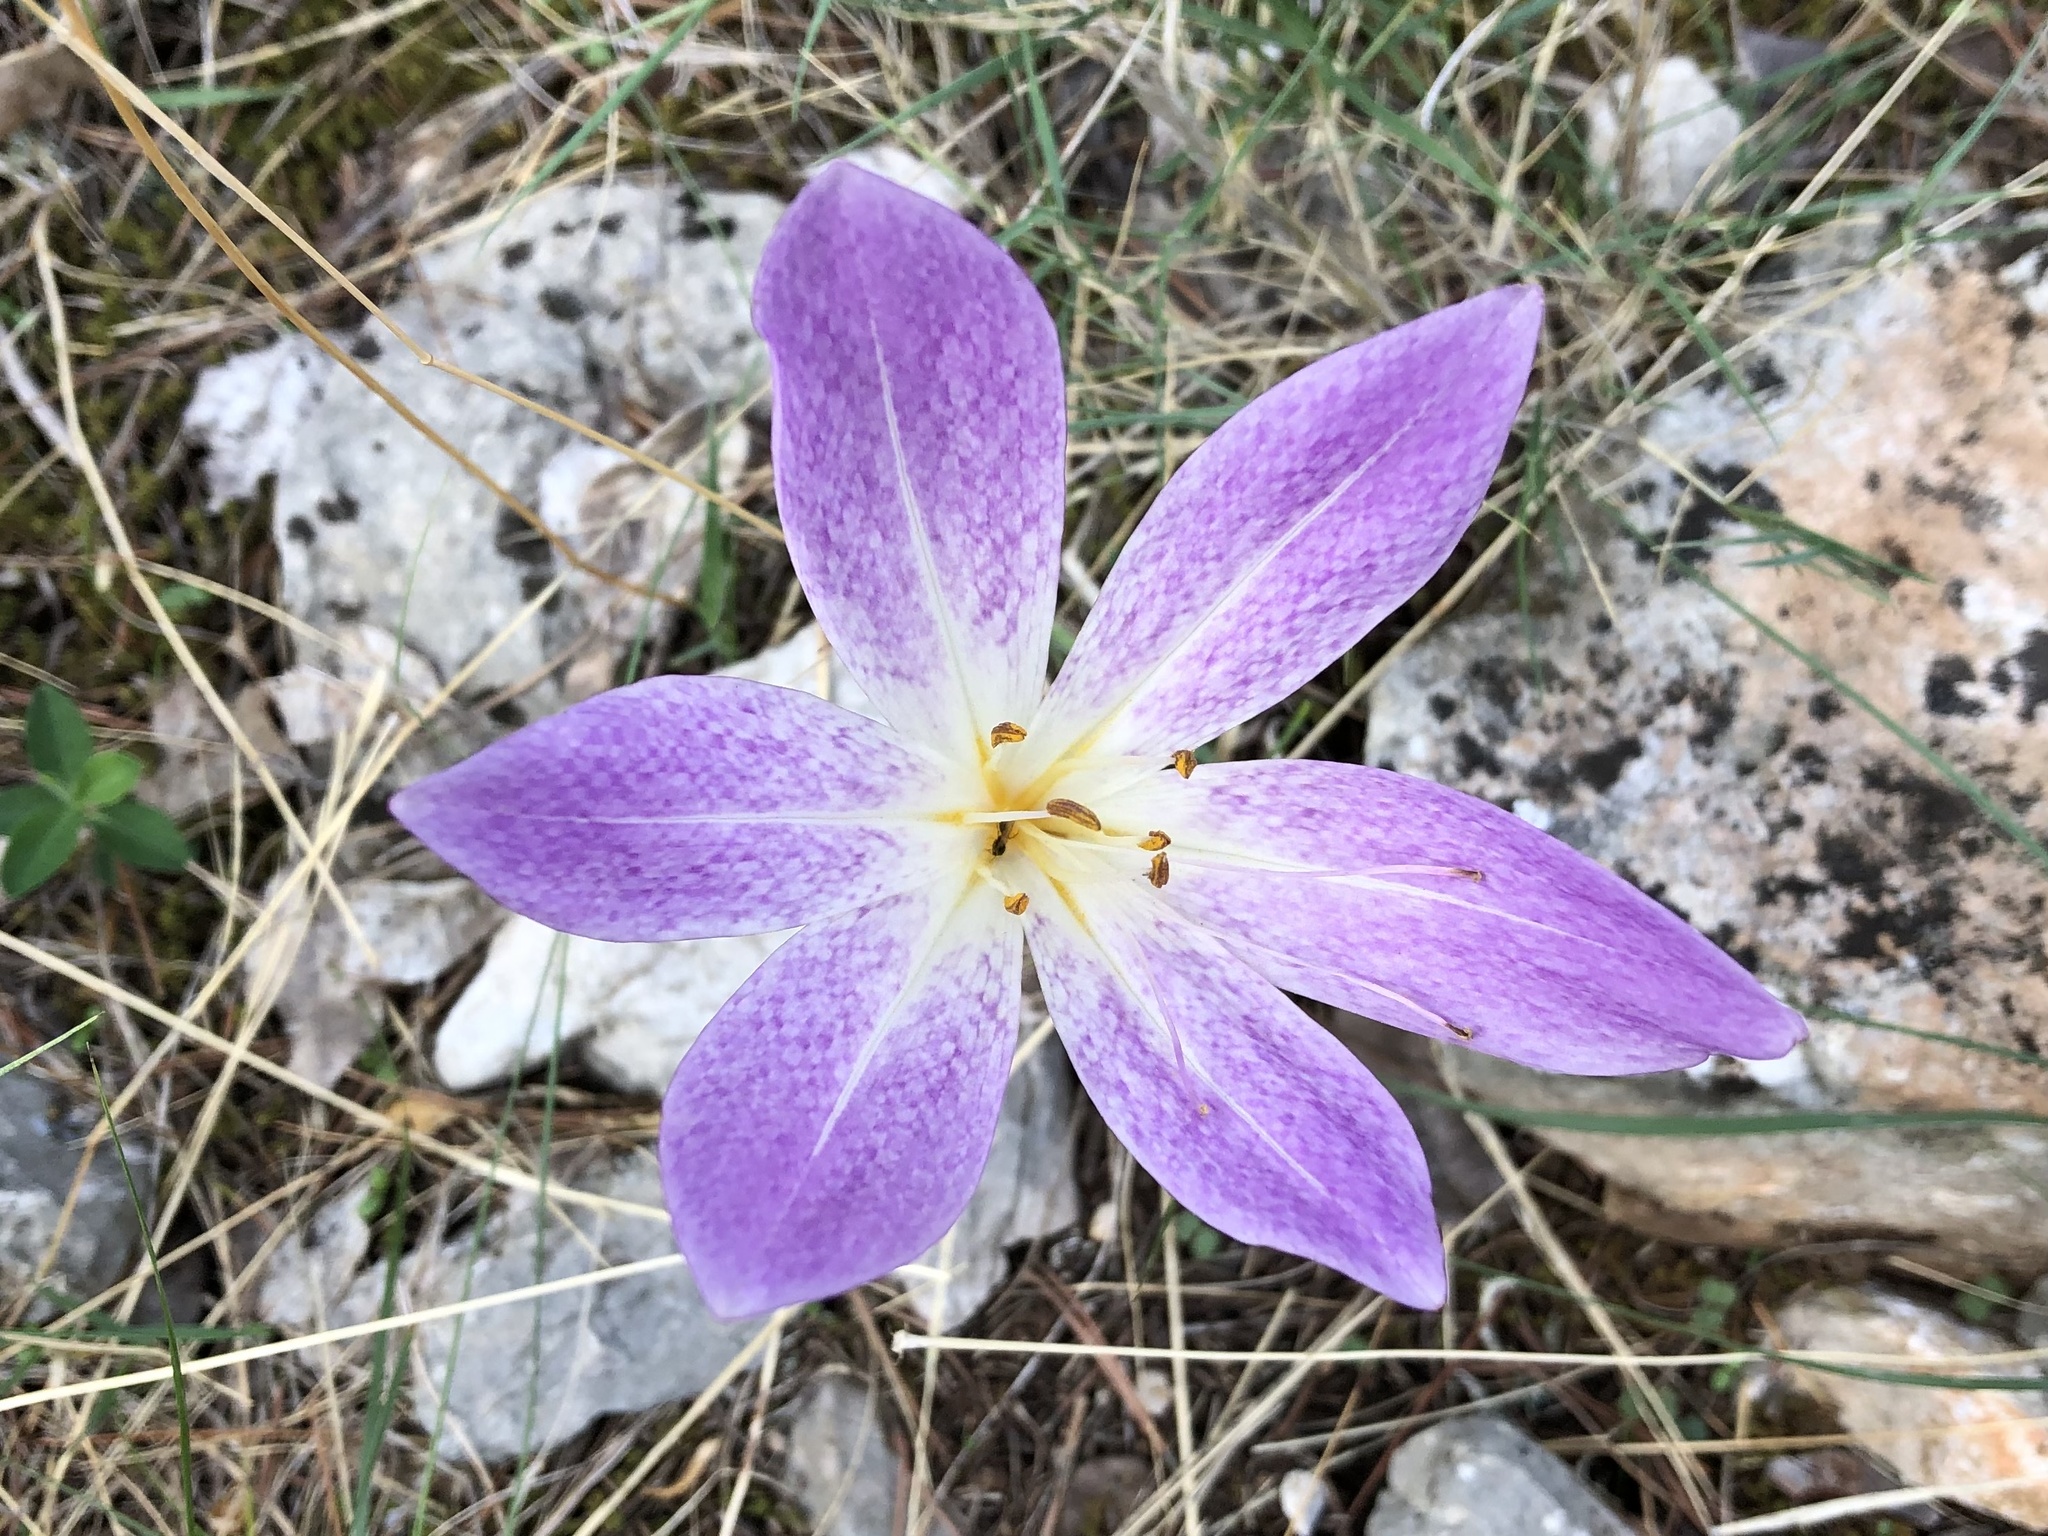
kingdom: Plantae
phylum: Tracheophyta
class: Liliopsida
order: Liliales
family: Colchicaceae
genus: Colchicum
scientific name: Colchicum haynaldii
